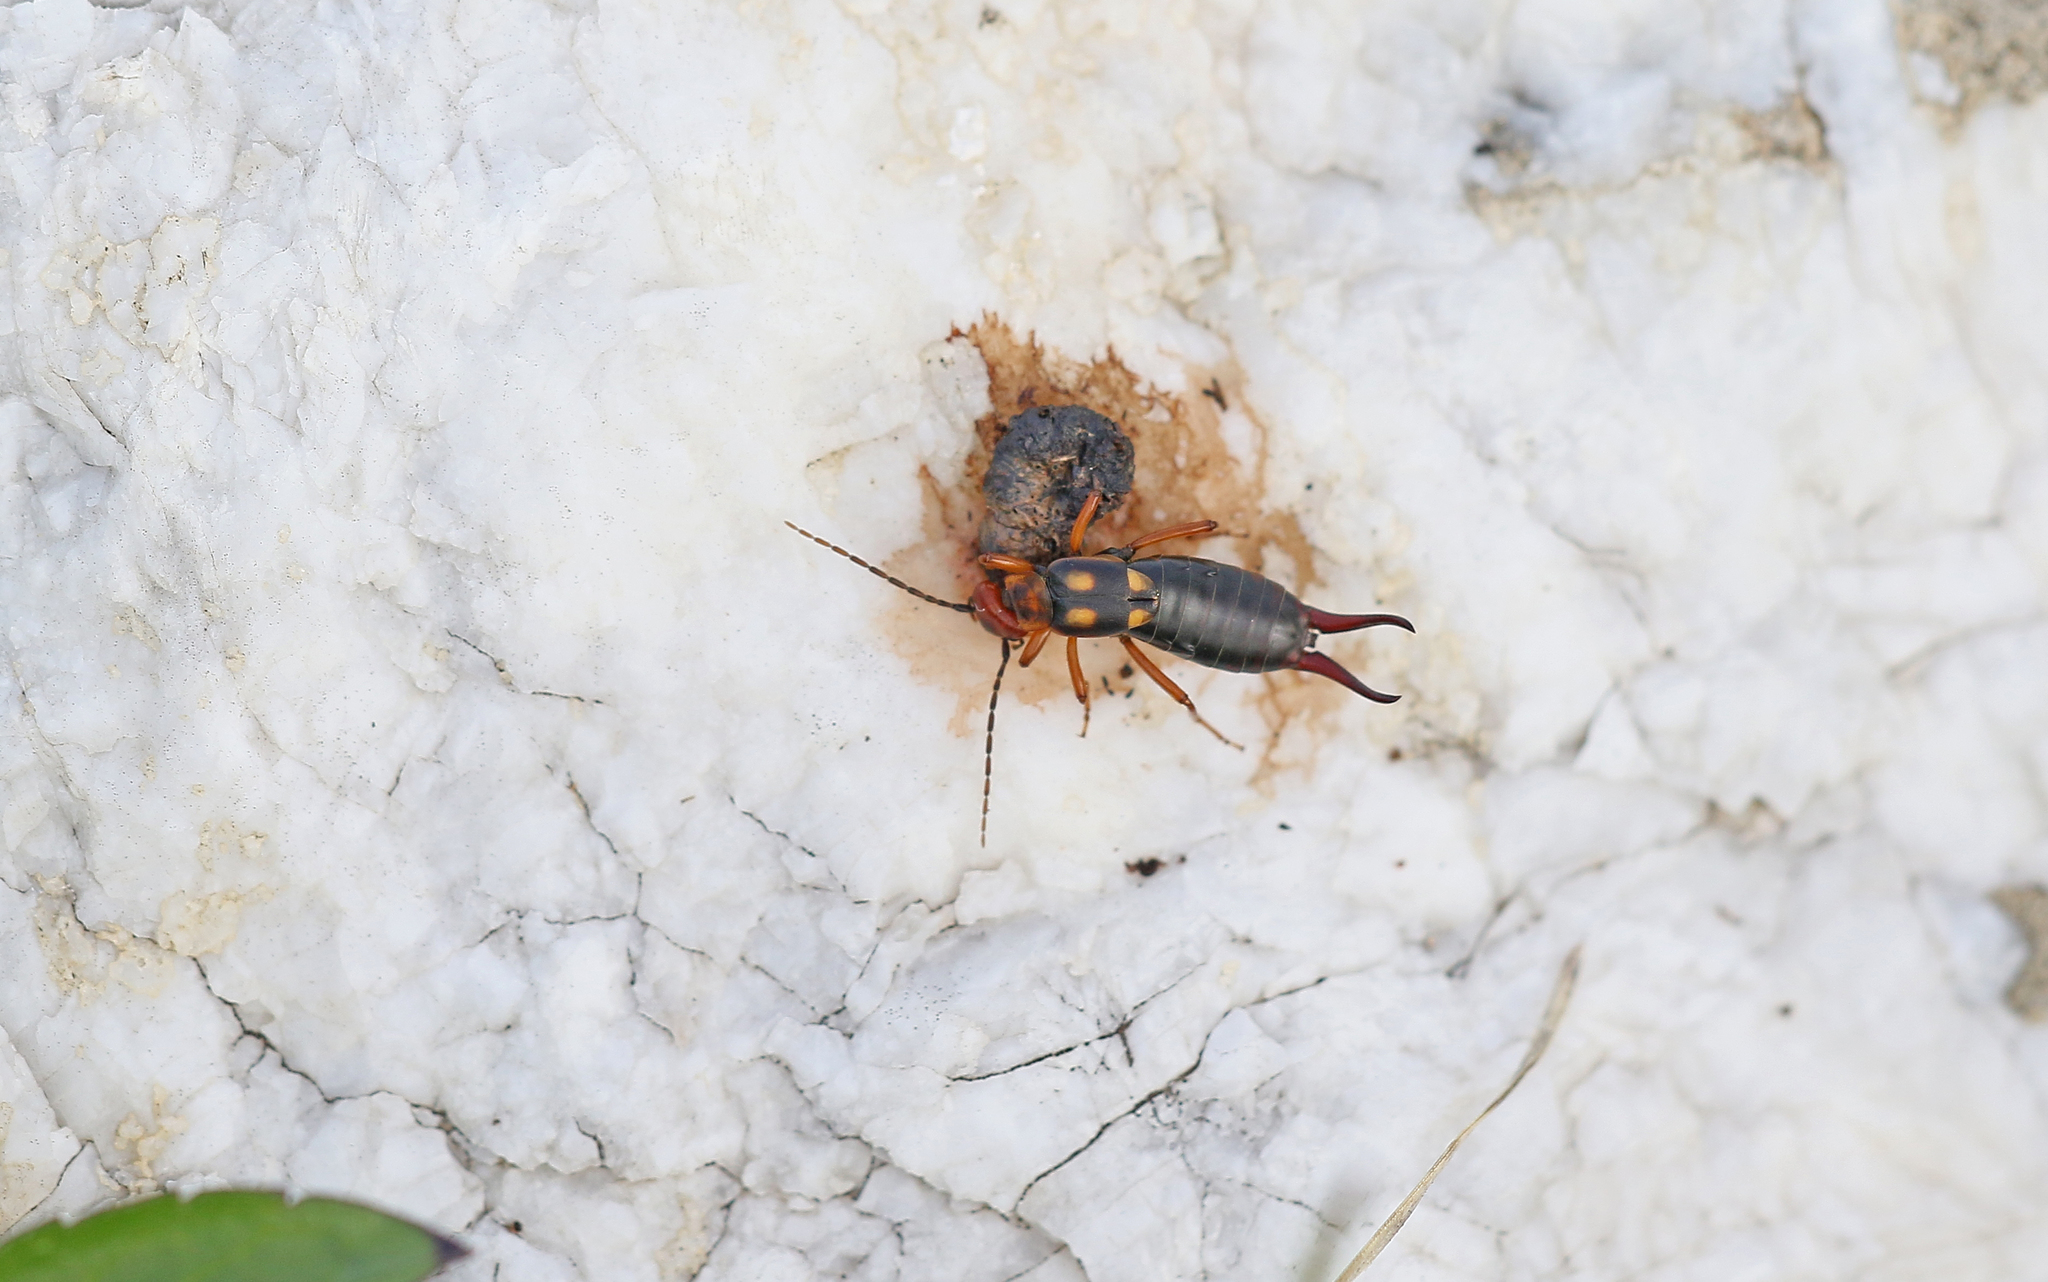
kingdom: Animalia
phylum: Arthropoda
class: Insecta
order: Dermaptera
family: Forficulidae
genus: Anechura
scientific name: Anechura bipunctata
